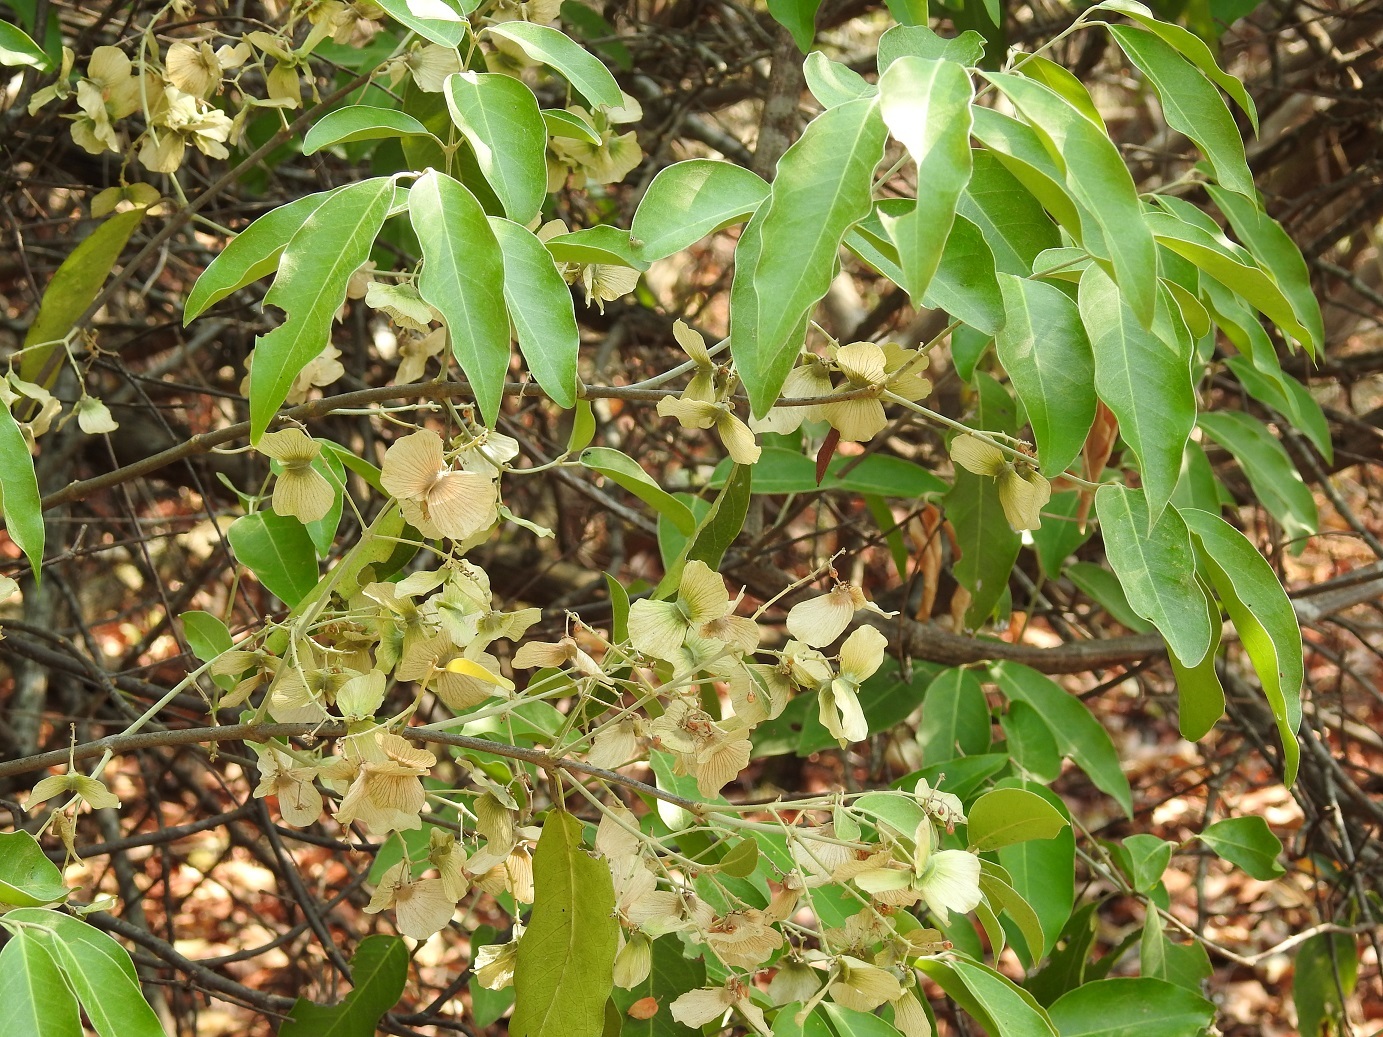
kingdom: Plantae
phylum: Tracheophyta
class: Magnoliopsida
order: Malpighiales
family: Malpighiaceae
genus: Psychopterys
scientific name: Psychopterys multiflora
